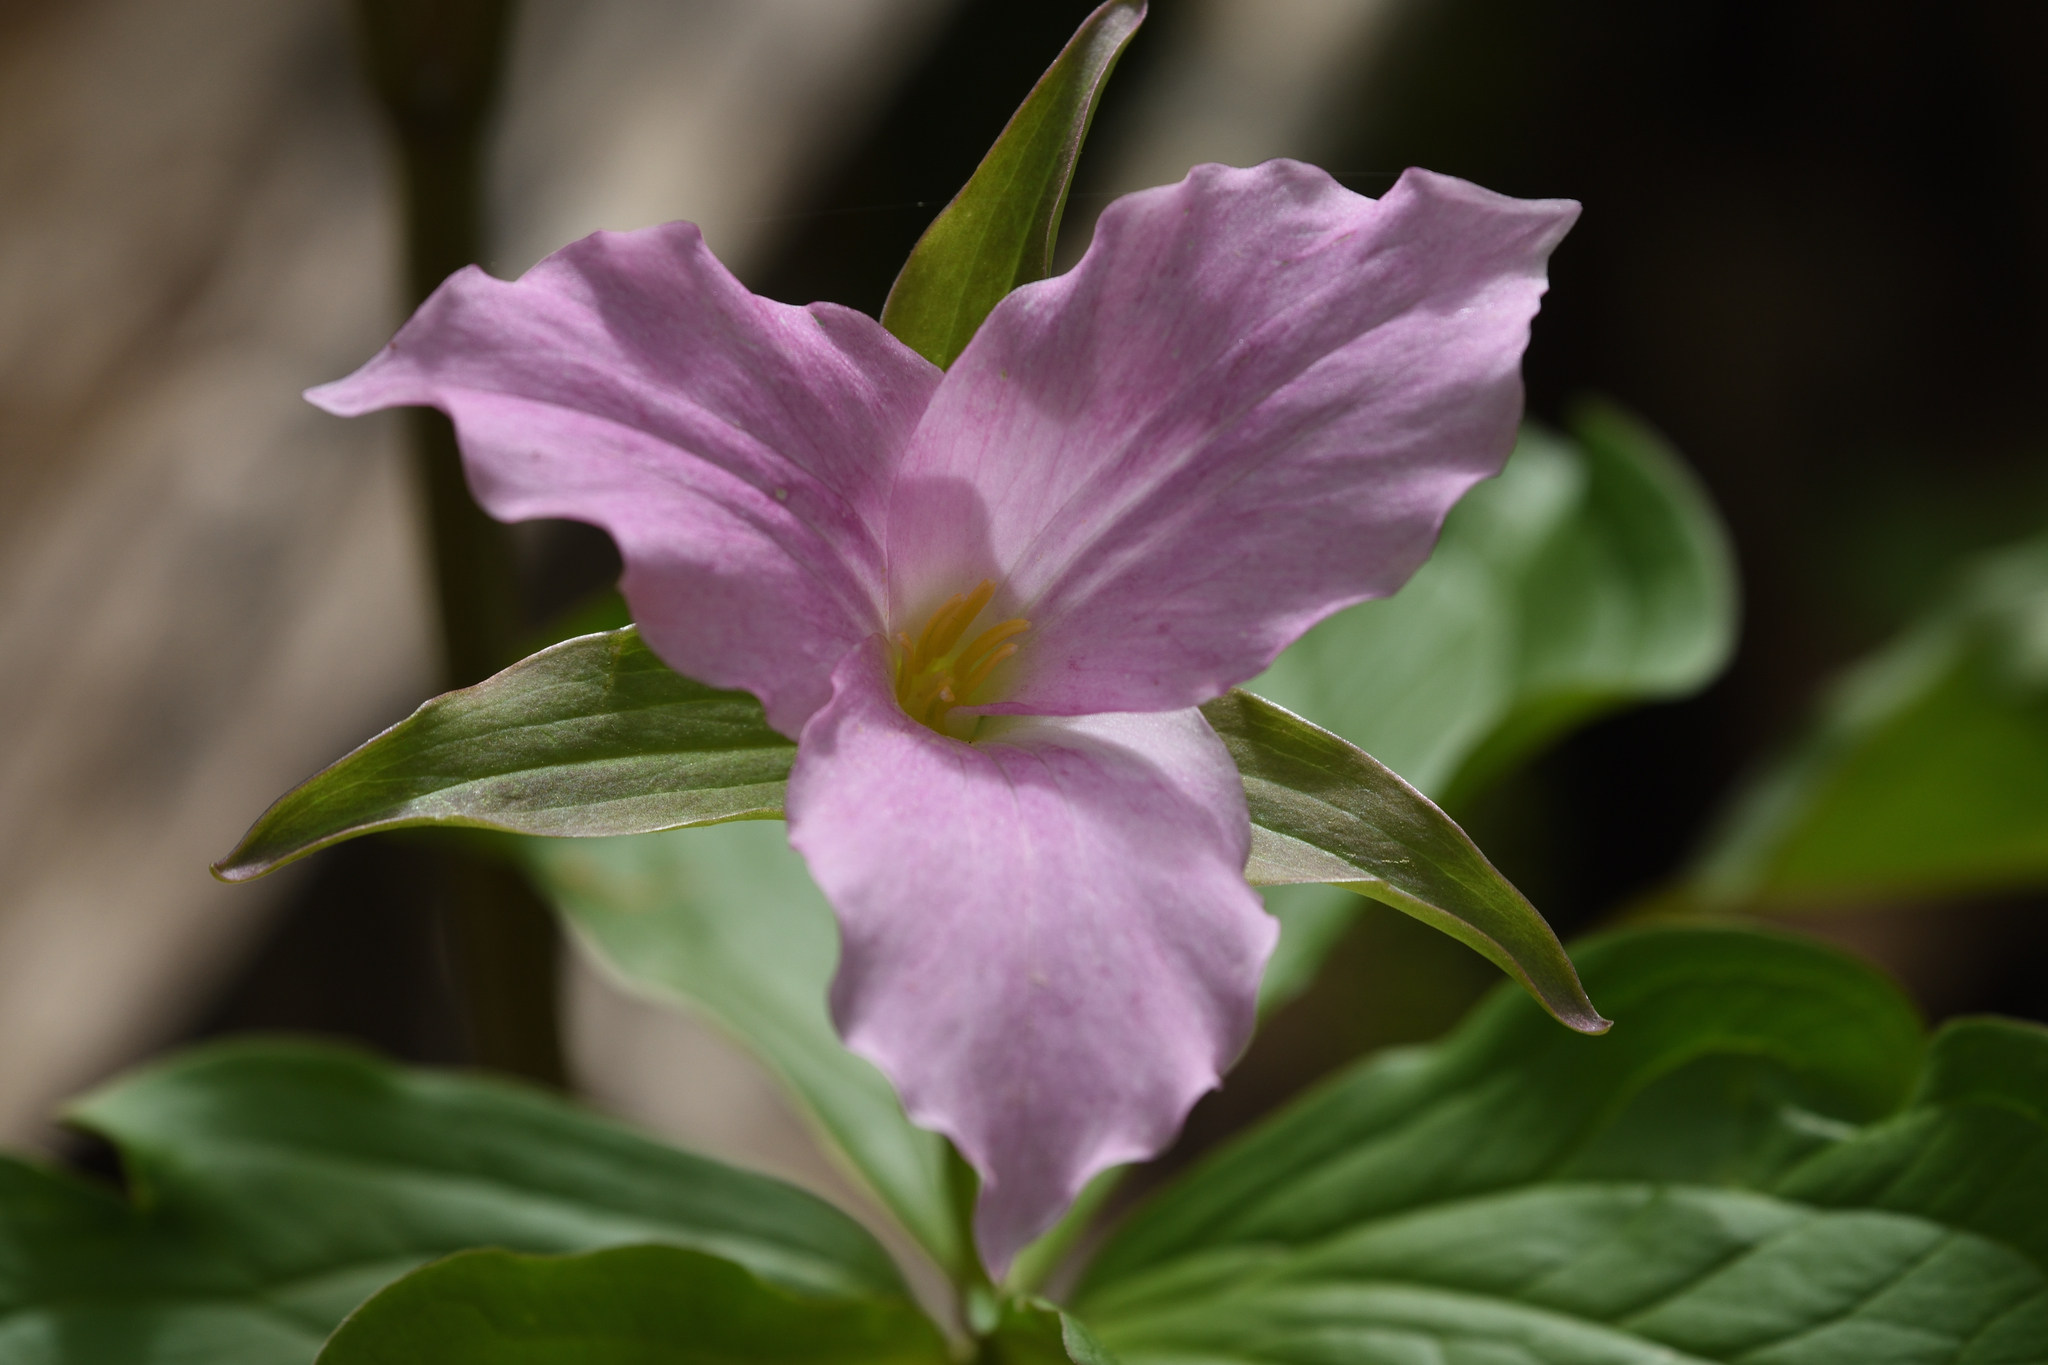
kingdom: Plantae
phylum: Tracheophyta
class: Liliopsida
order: Liliales
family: Melanthiaceae
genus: Trillium
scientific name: Trillium grandiflorum
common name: Great white trillium
